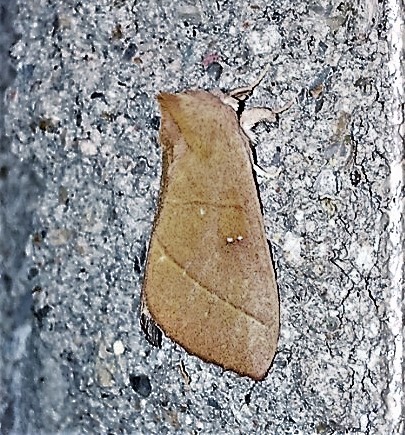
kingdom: Animalia
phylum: Arthropoda
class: Insecta
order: Lepidoptera
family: Notodontidae
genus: Nadata
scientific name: Nadata gibbosa
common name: White-dotted prominent
